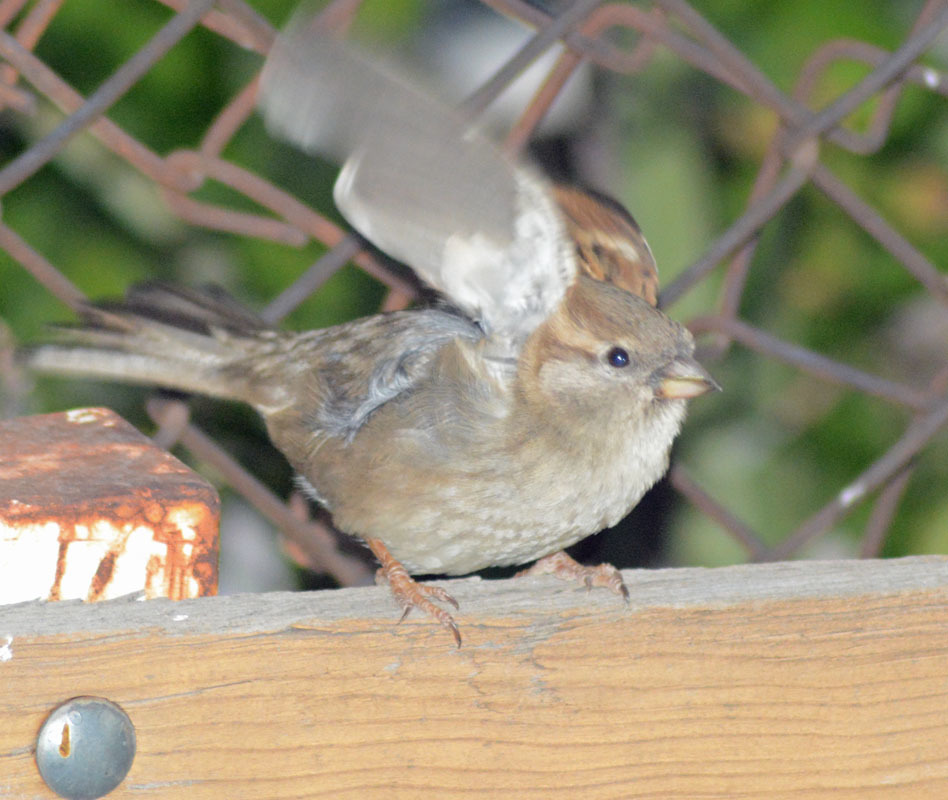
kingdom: Animalia
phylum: Chordata
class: Aves
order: Passeriformes
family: Passeridae
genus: Passer
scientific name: Passer domesticus
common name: House sparrow
